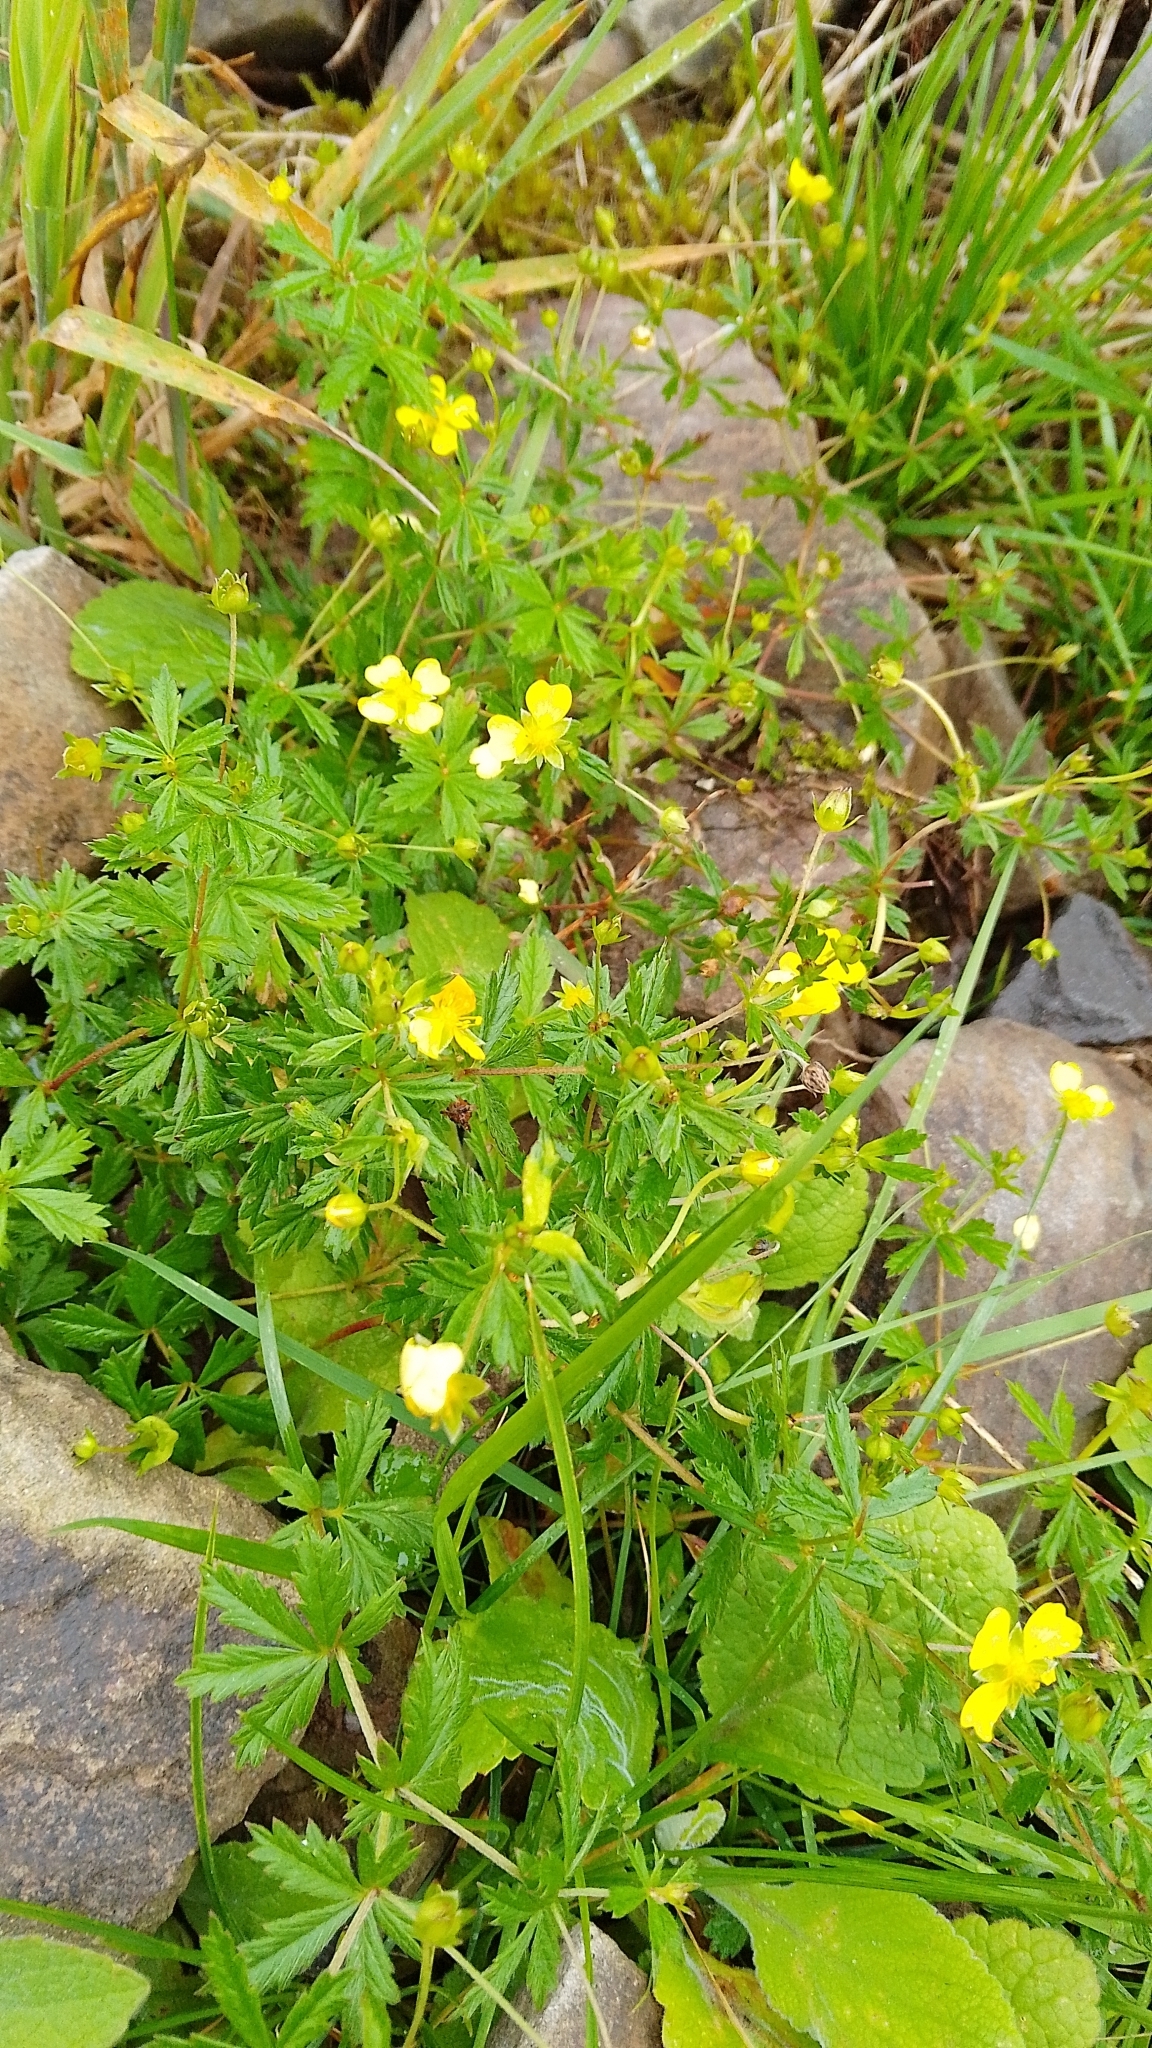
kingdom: Plantae
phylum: Tracheophyta
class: Magnoliopsida
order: Rosales
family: Rosaceae
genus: Potentilla
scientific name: Potentilla erecta
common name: Tormentil
